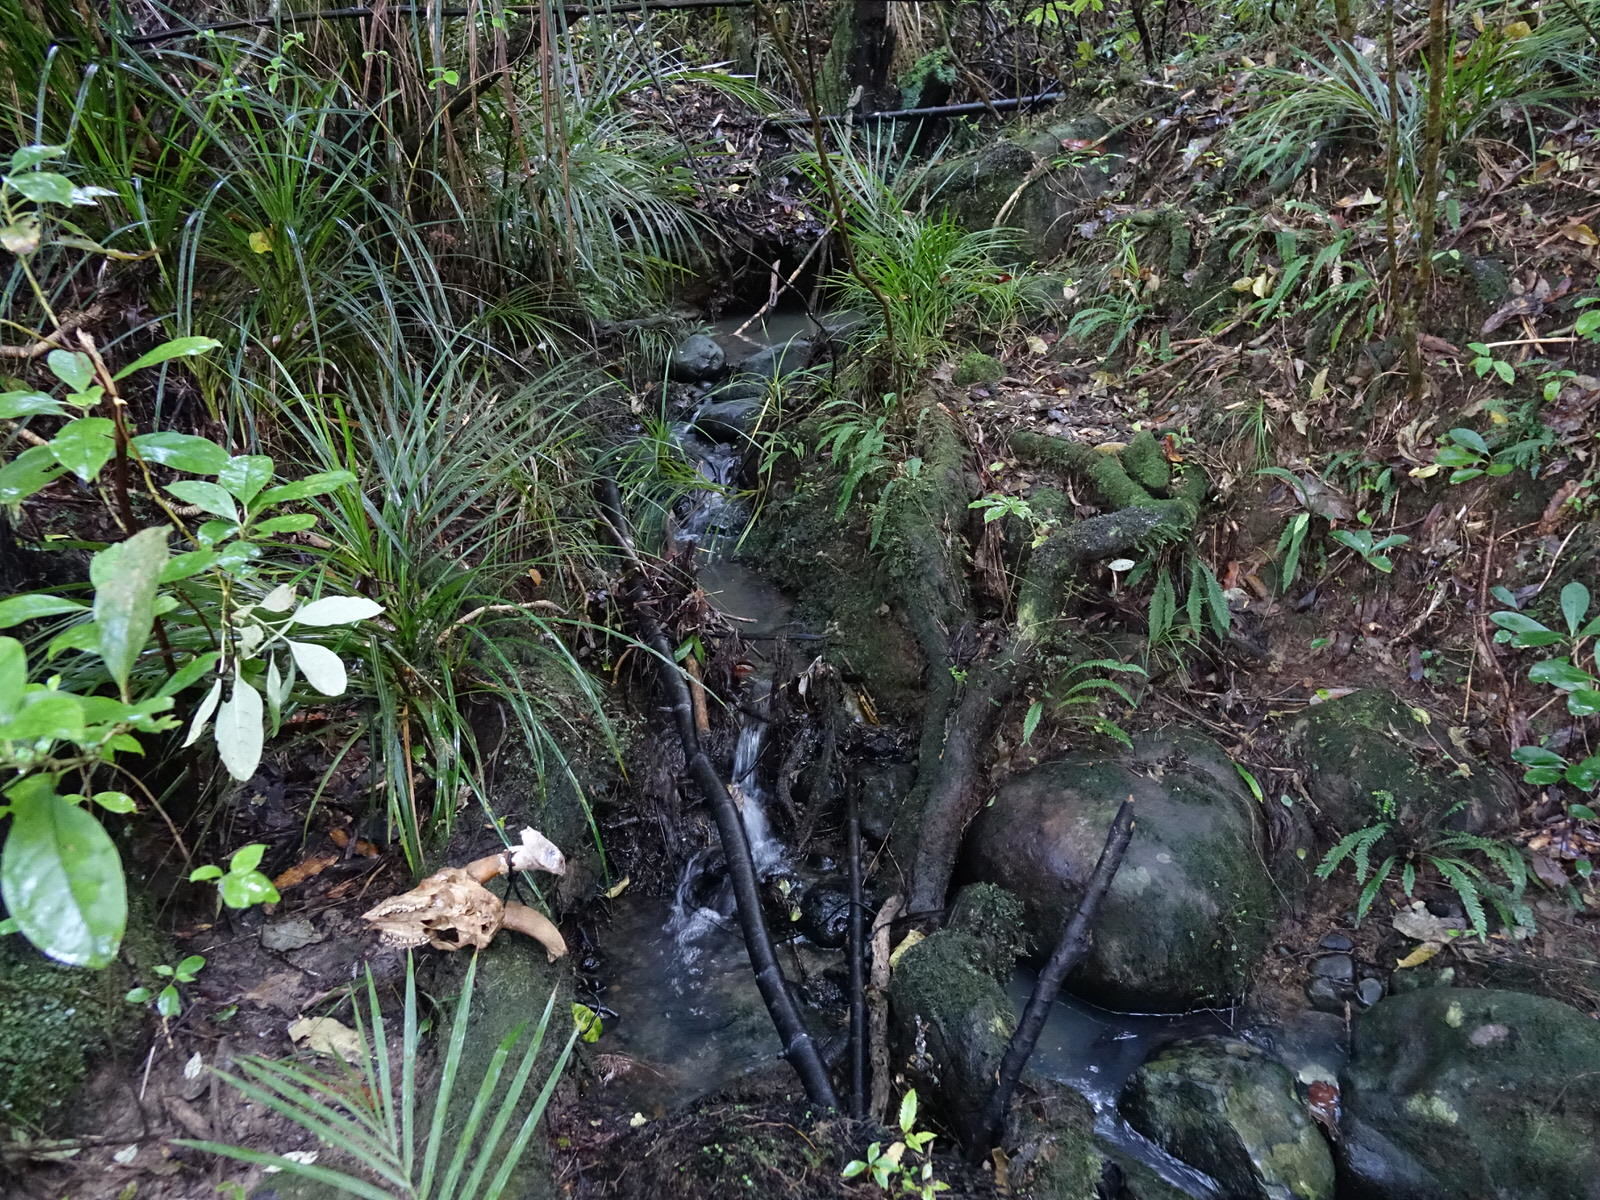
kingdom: Animalia
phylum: Chordata
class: Mammalia
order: Artiodactyla
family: Bovidae
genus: Capra
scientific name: Capra hircus
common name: Domestic goat
